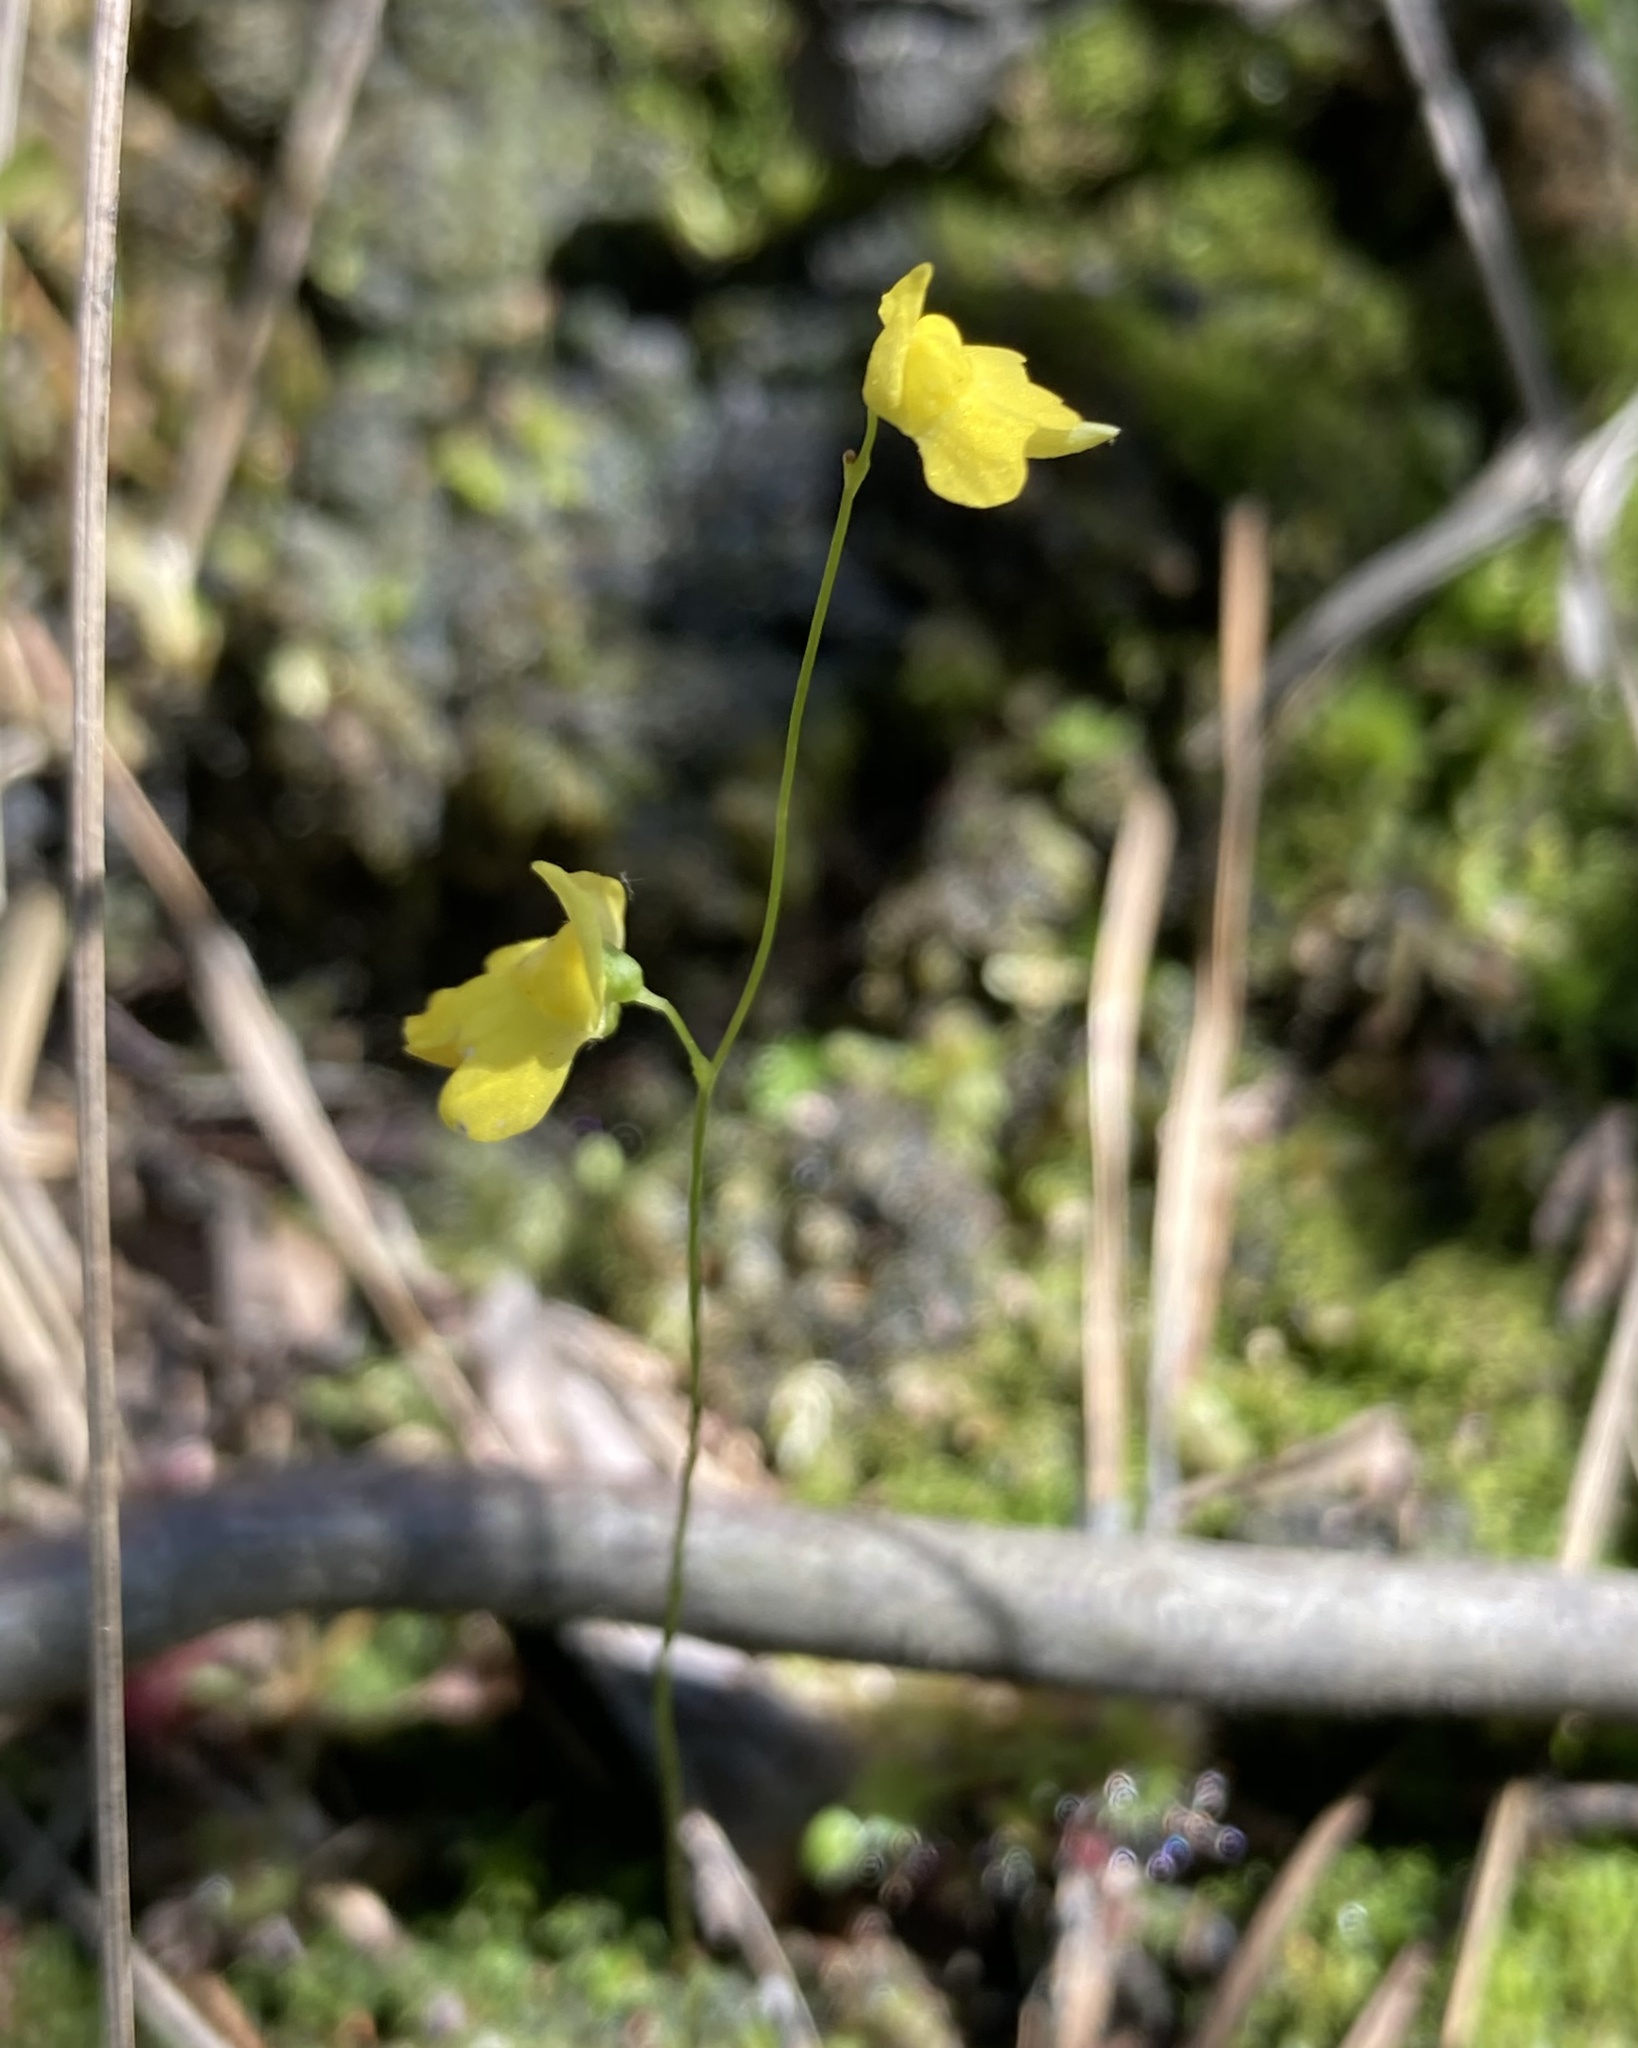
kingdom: Plantae
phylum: Tracheophyta
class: Magnoliopsida
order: Lamiales
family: Lentibulariaceae
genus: Utricularia
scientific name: Utricularia subulata
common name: Tiny bladderwort
